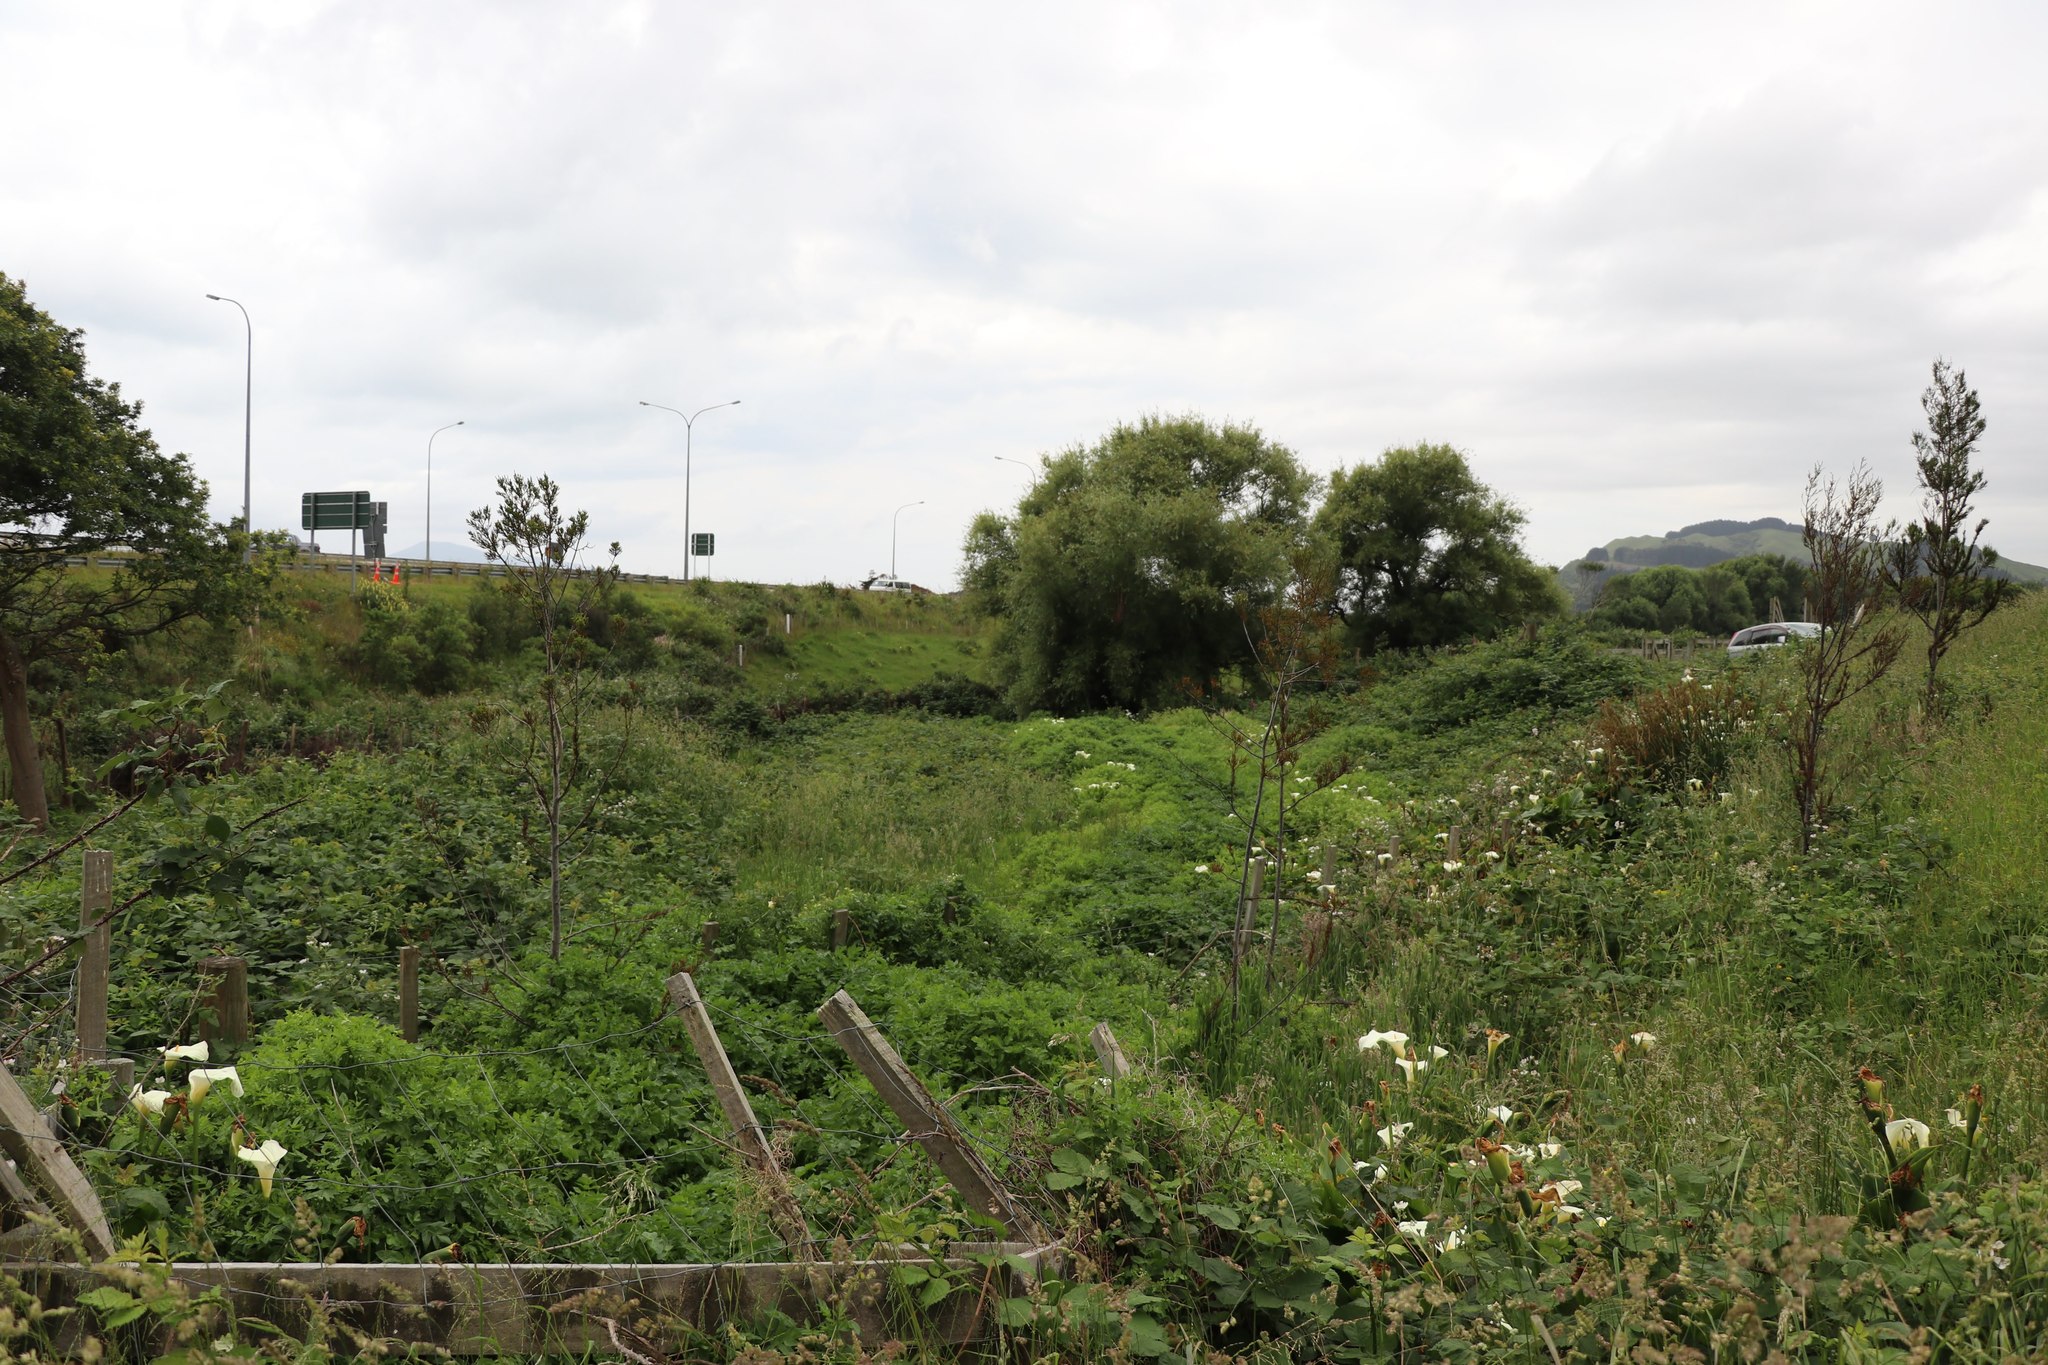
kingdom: Plantae
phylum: Tracheophyta
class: Pinopsida
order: Pinales
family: Podocarpaceae
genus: Dacrycarpus
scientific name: Dacrycarpus dacrydioides
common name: White pine
